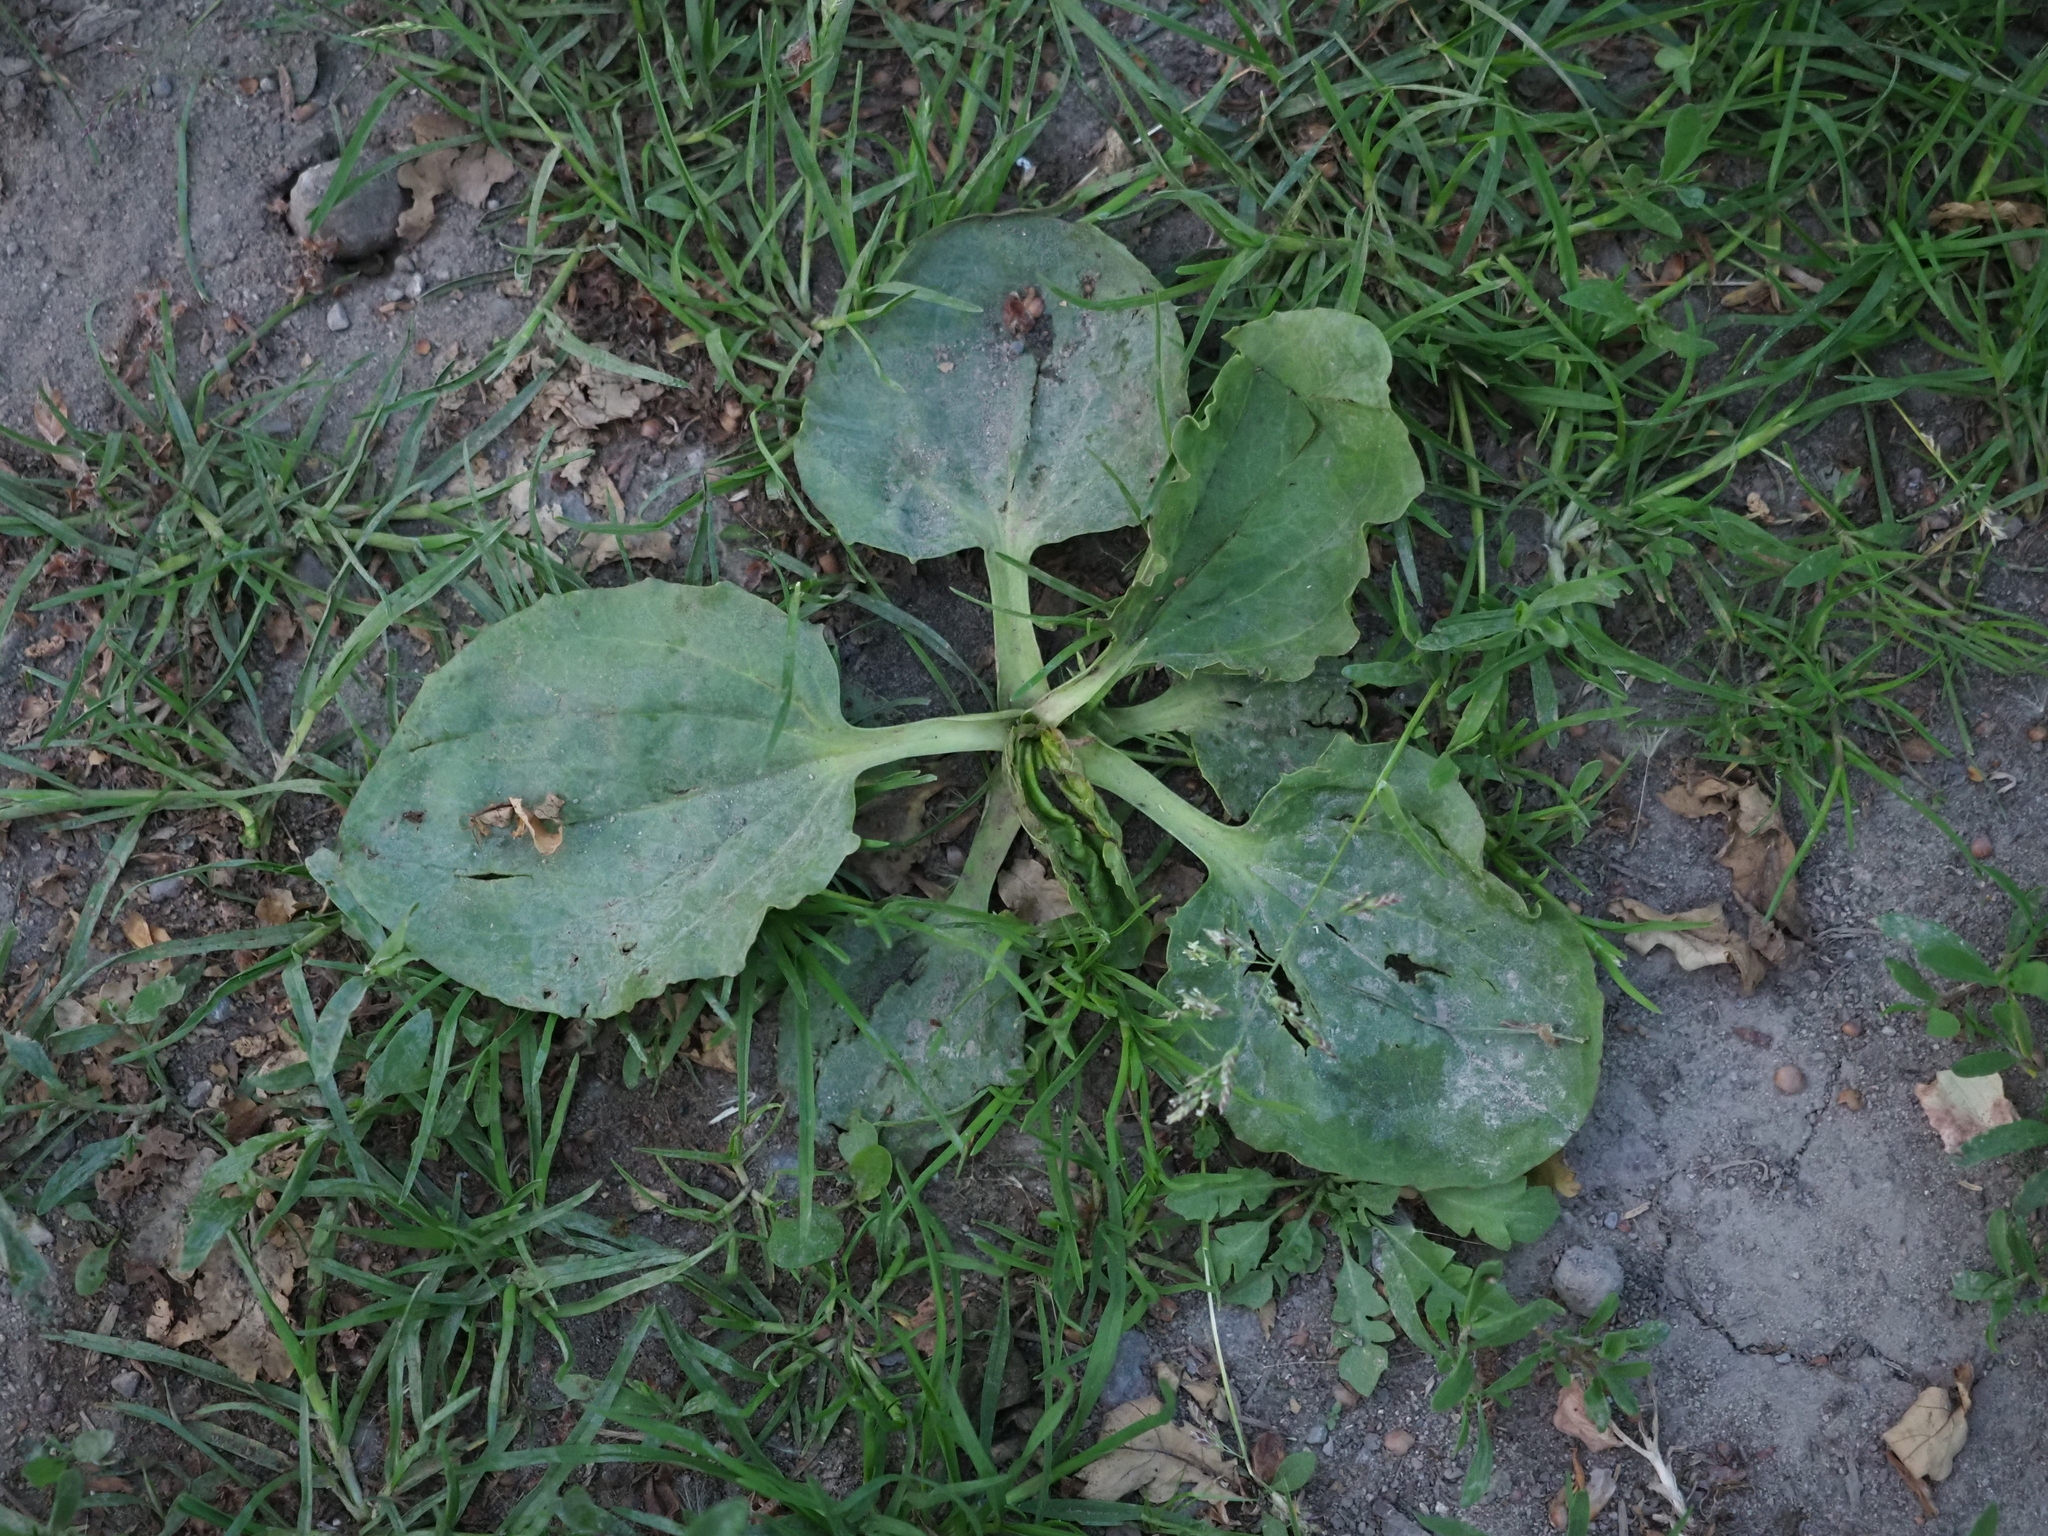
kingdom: Plantae
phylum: Tracheophyta
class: Magnoliopsida
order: Lamiales
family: Plantaginaceae
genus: Plantago
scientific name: Plantago major
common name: Common plantain
